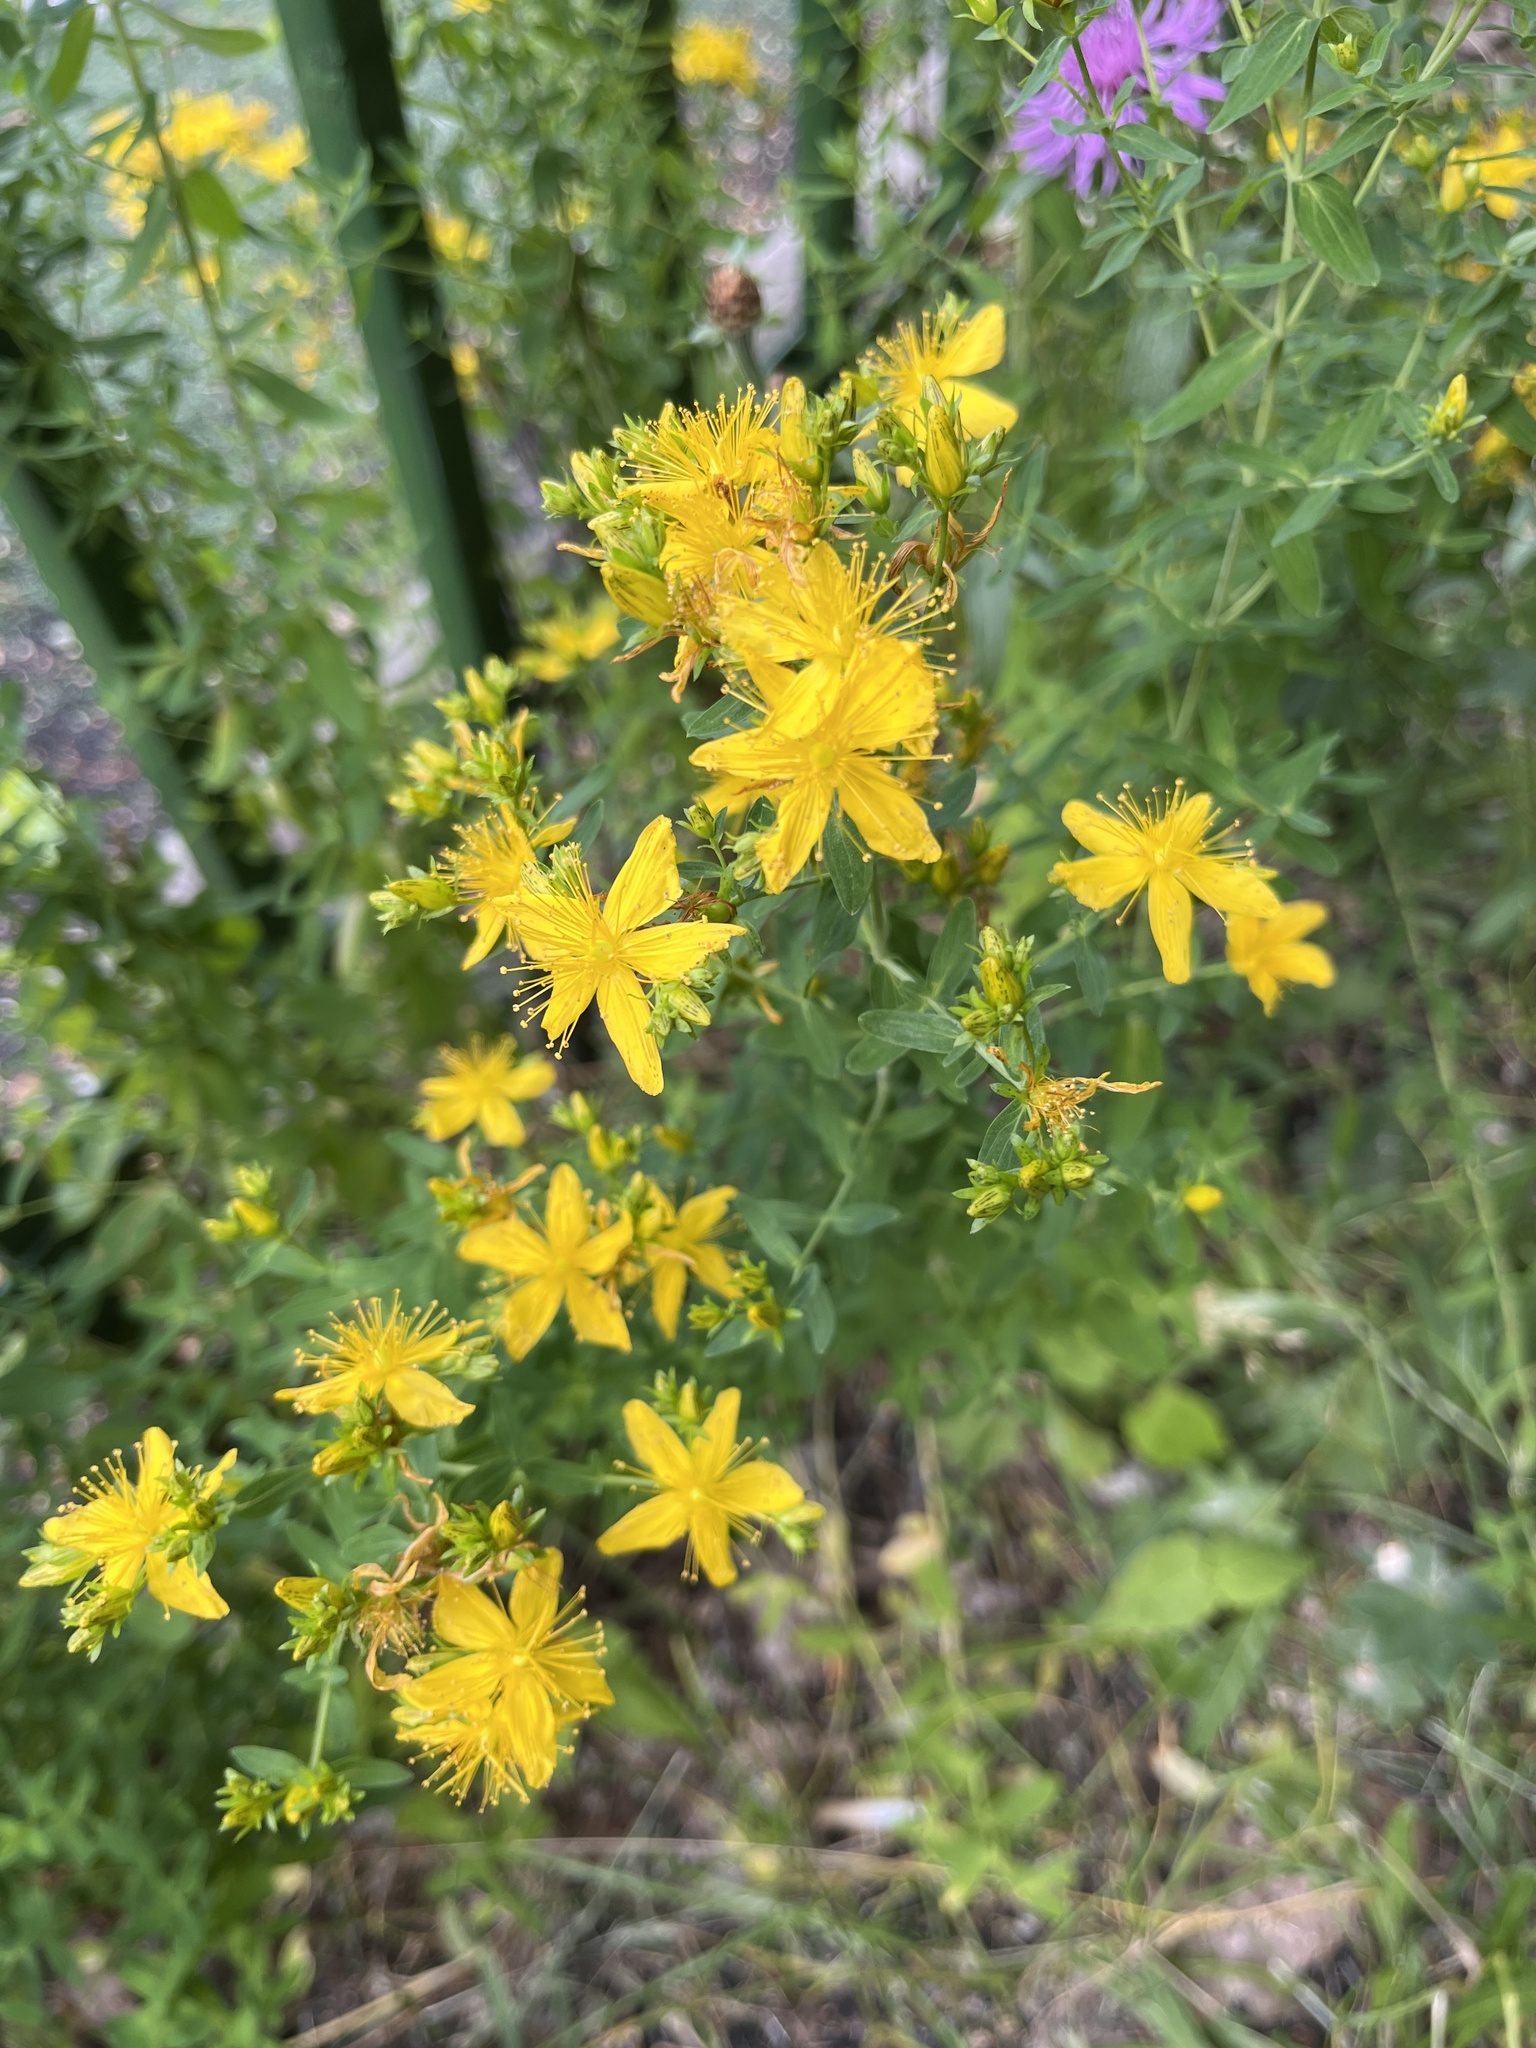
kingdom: Plantae
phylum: Tracheophyta
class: Magnoliopsida
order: Malpighiales
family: Hypericaceae
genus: Hypericum
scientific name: Hypericum perforatum
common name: Common st. johnswort
